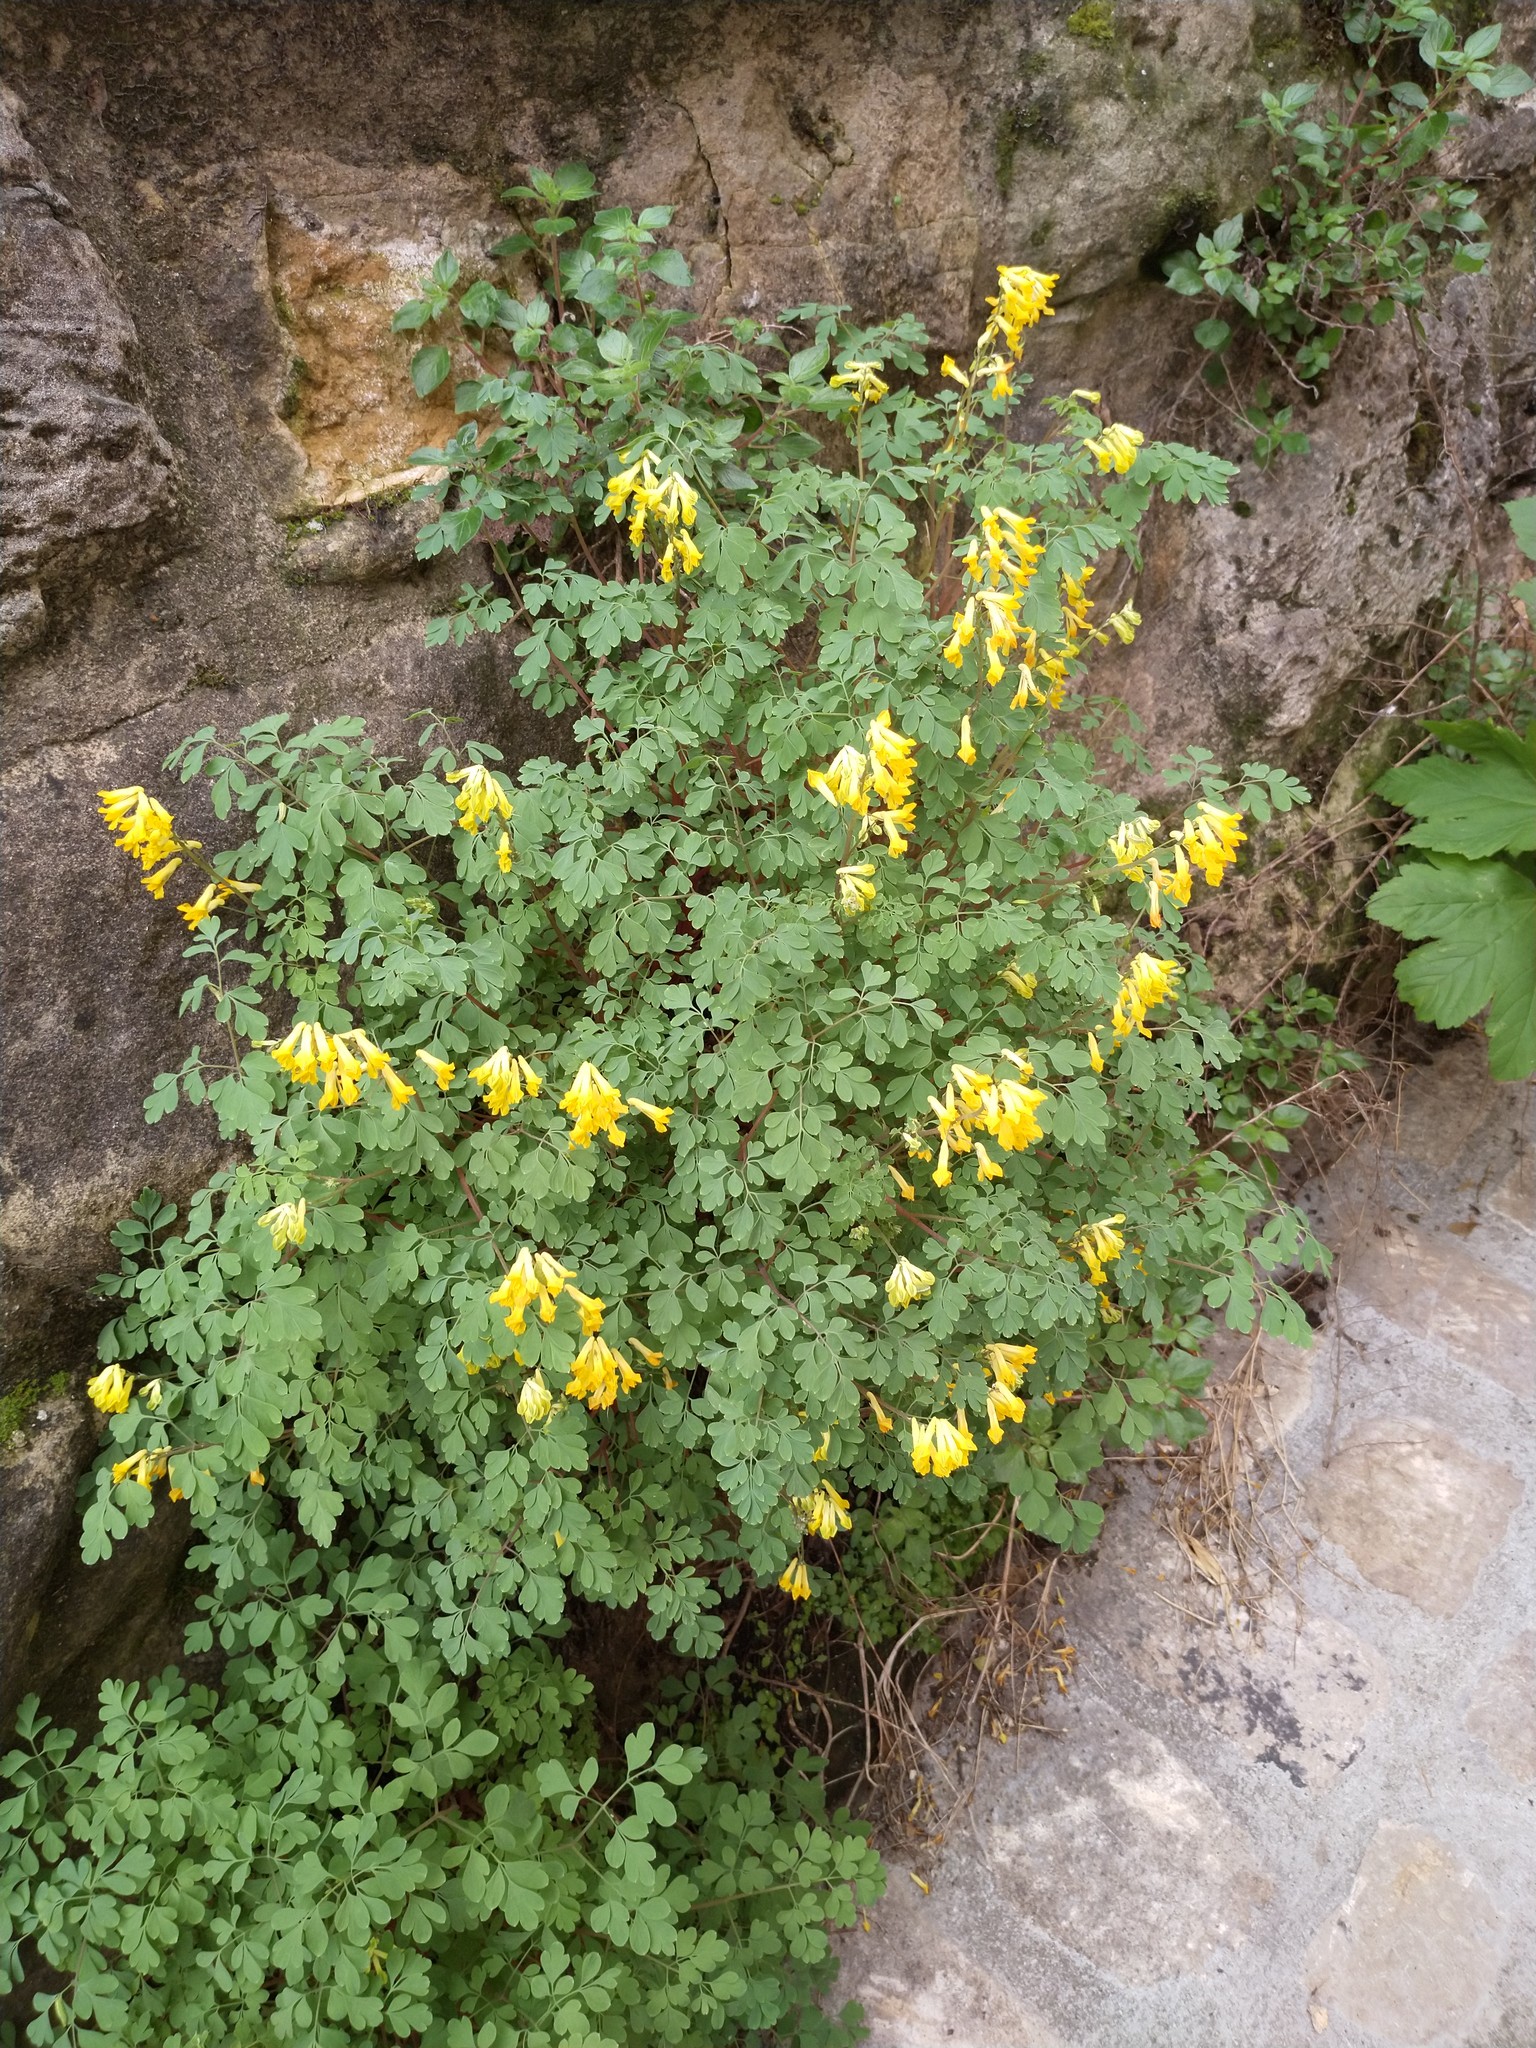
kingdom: Plantae
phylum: Tracheophyta
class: Magnoliopsida
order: Ranunculales
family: Papaveraceae
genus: Pseudofumaria
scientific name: Pseudofumaria lutea
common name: Yellow corydalis
